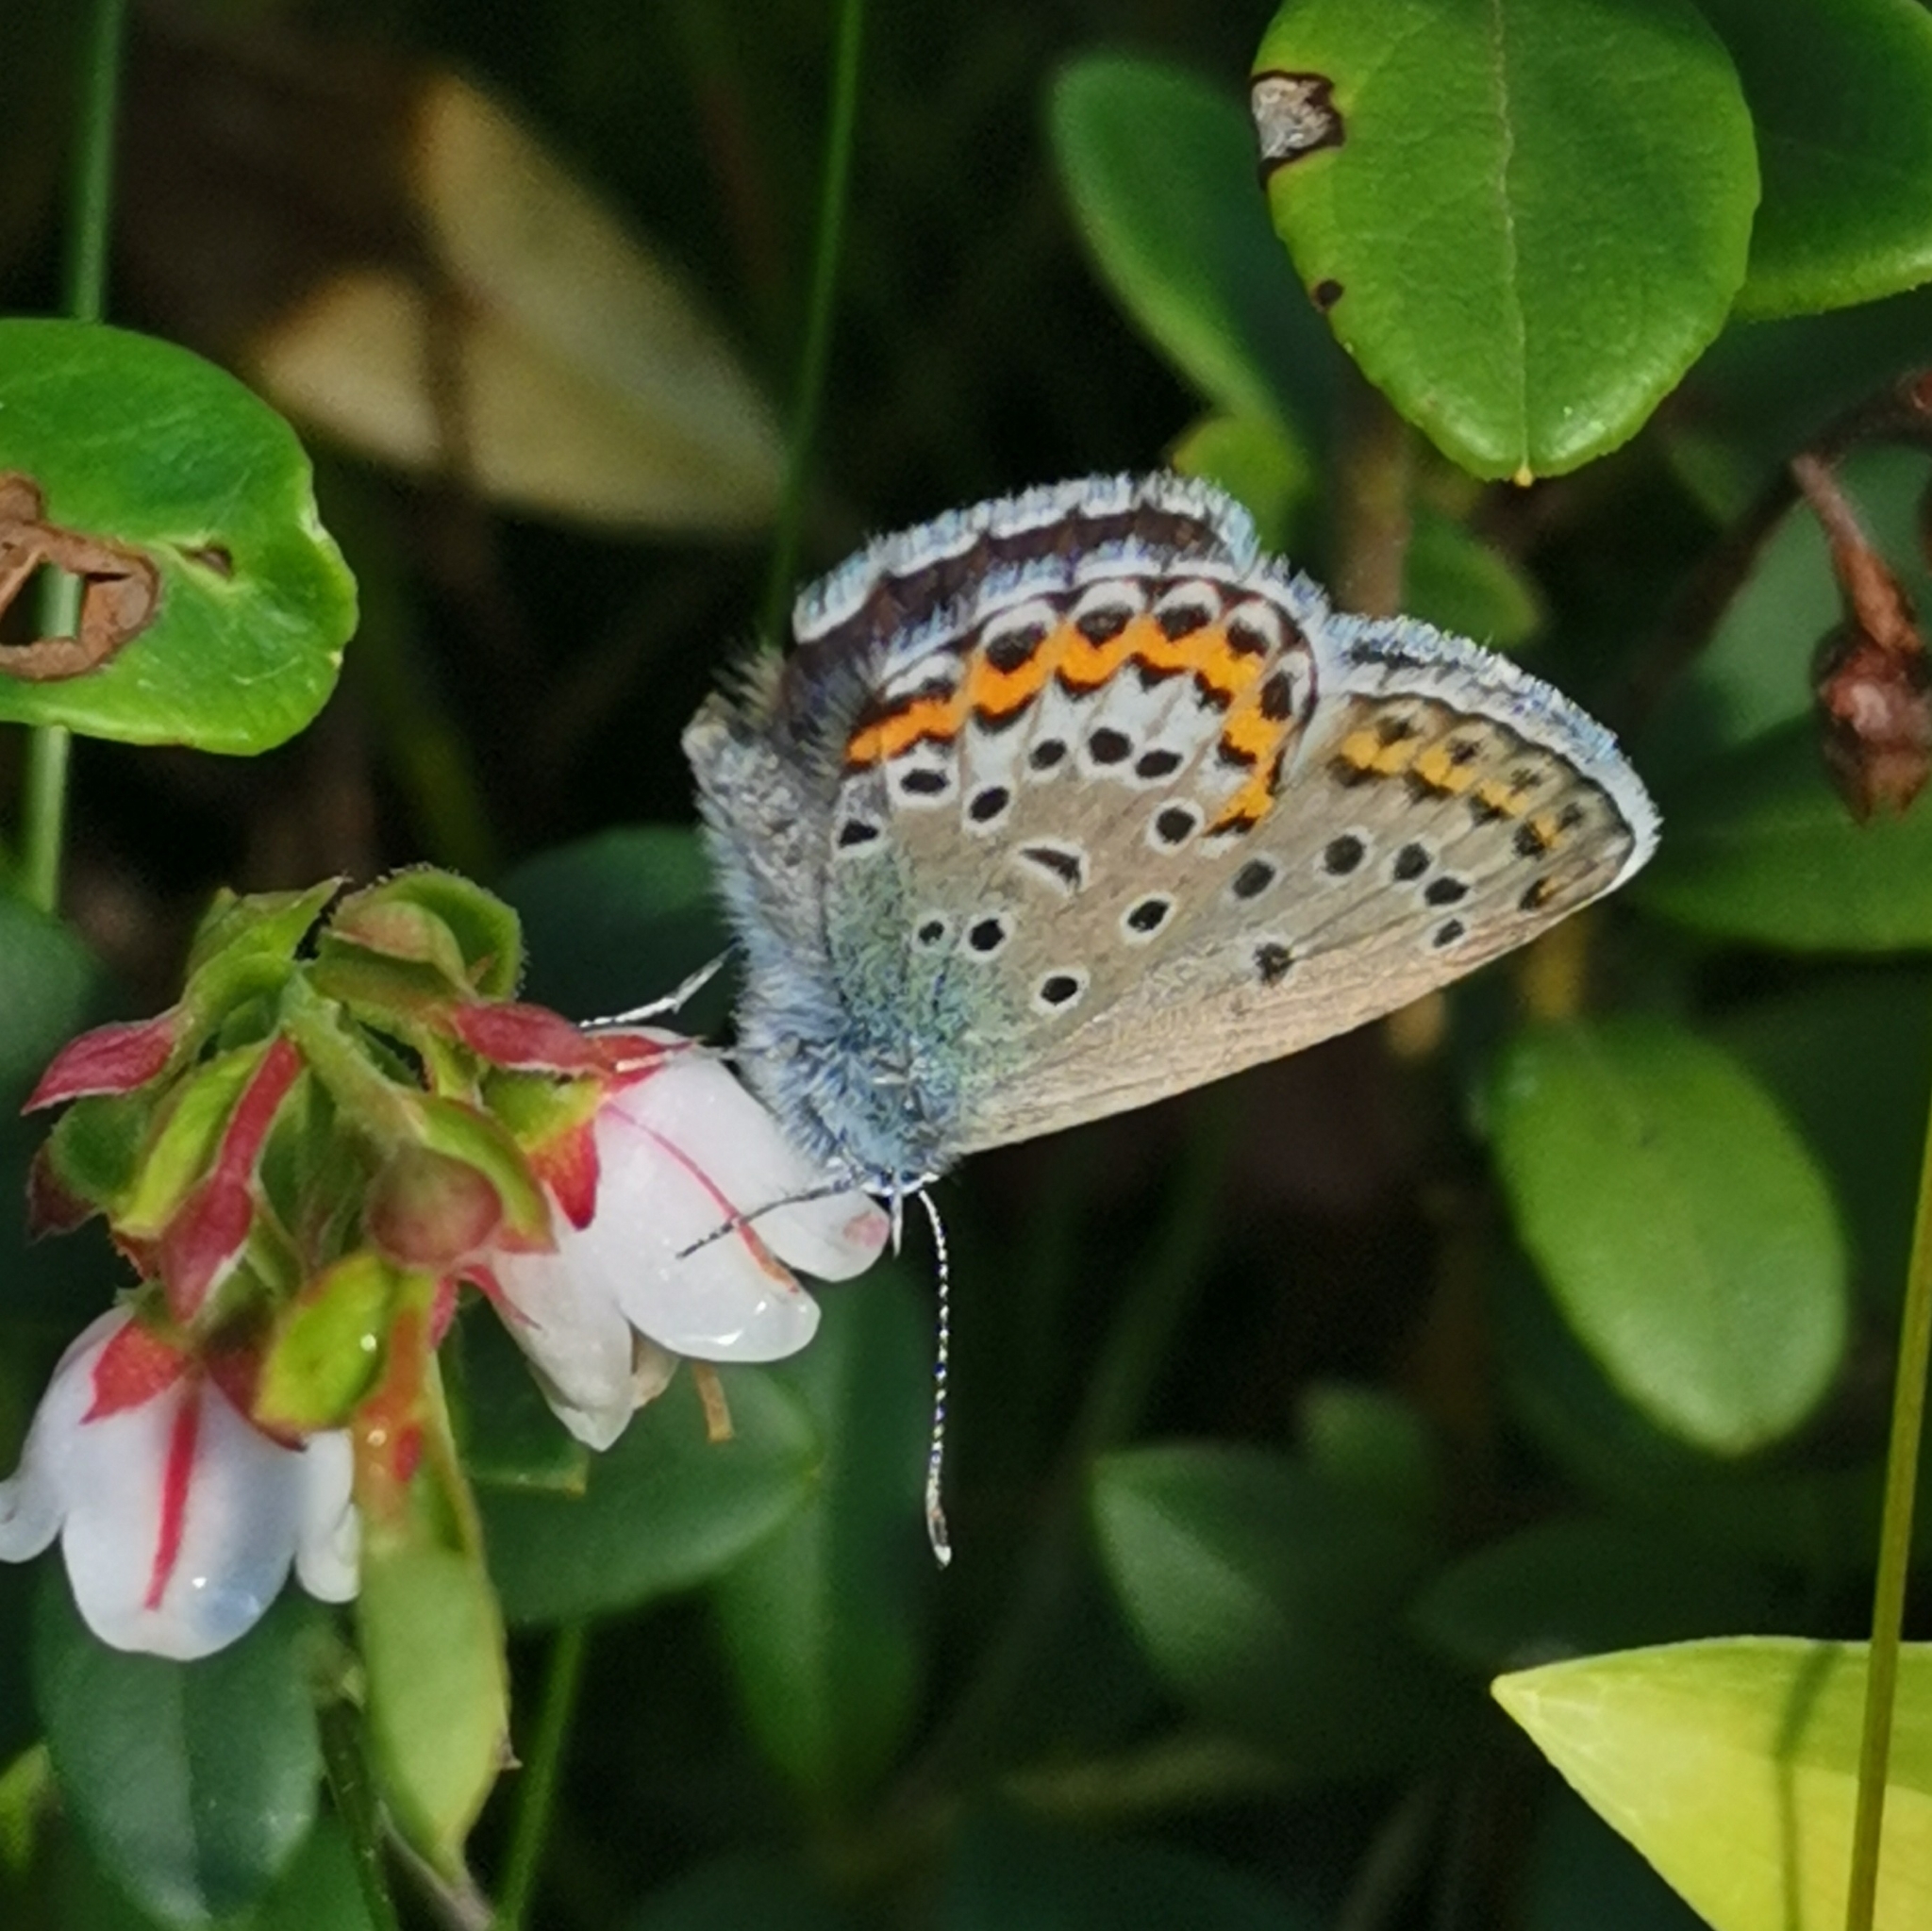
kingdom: Animalia
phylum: Arthropoda
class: Insecta
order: Lepidoptera
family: Lycaenidae
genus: Lycaeides
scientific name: Lycaeides idas
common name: Northern blue
